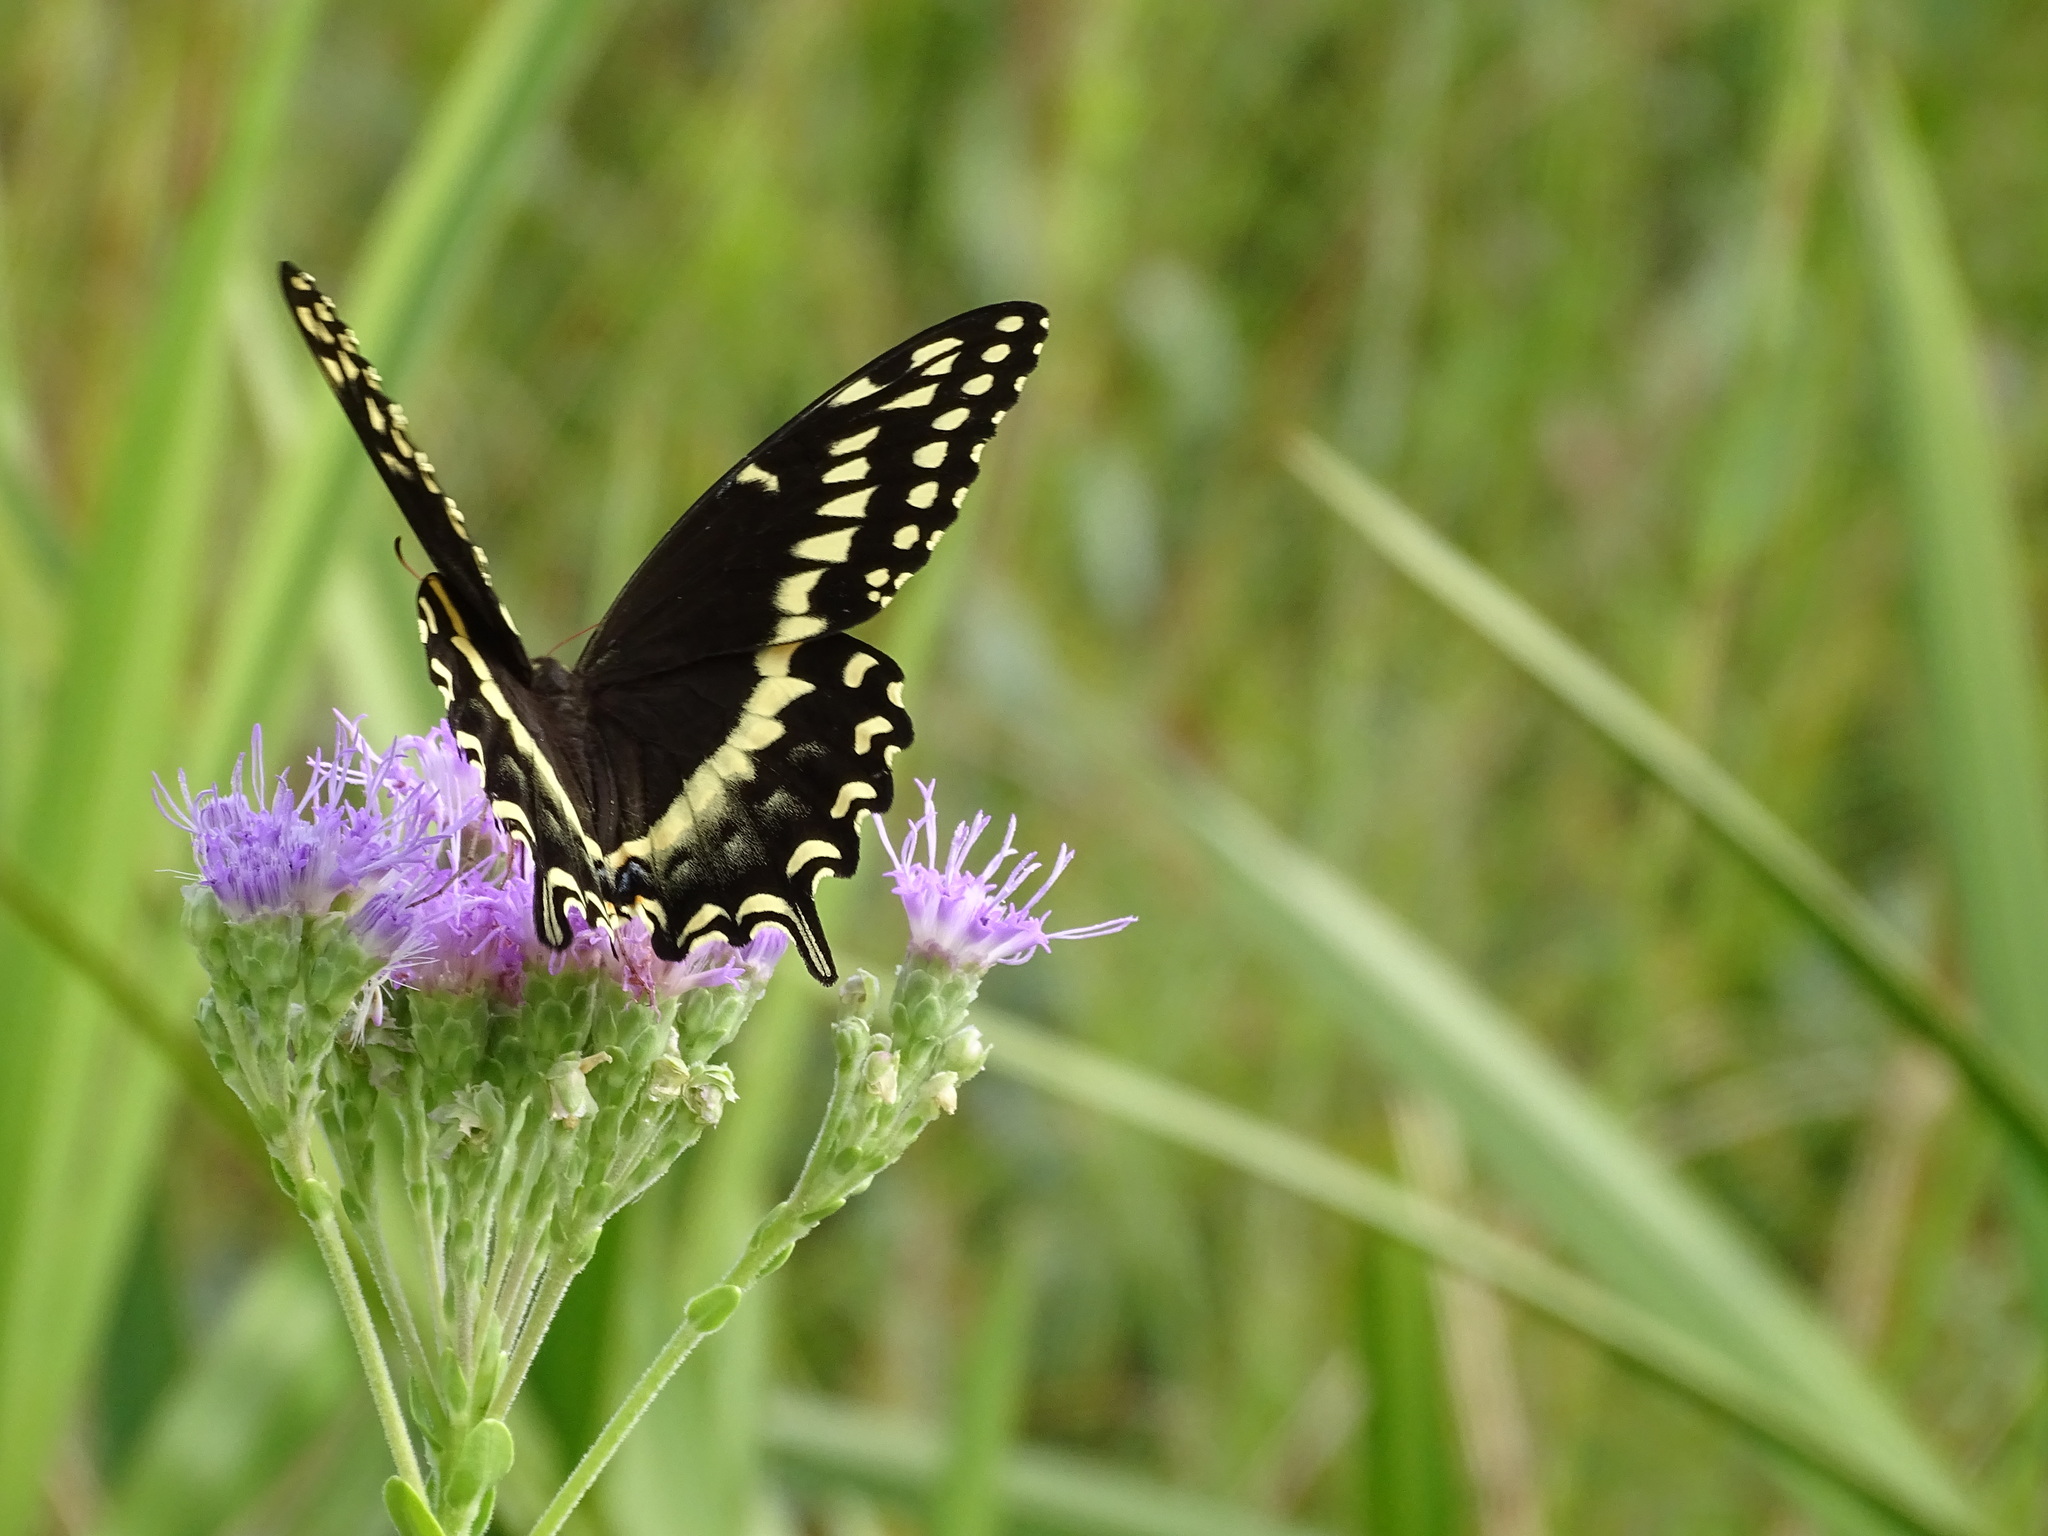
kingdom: Animalia
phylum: Arthropoda
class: Insecta
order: Lepidoptera
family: Papilionidae
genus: Papilio
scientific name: Papilio palamedes
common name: Palamedes swallowtail
